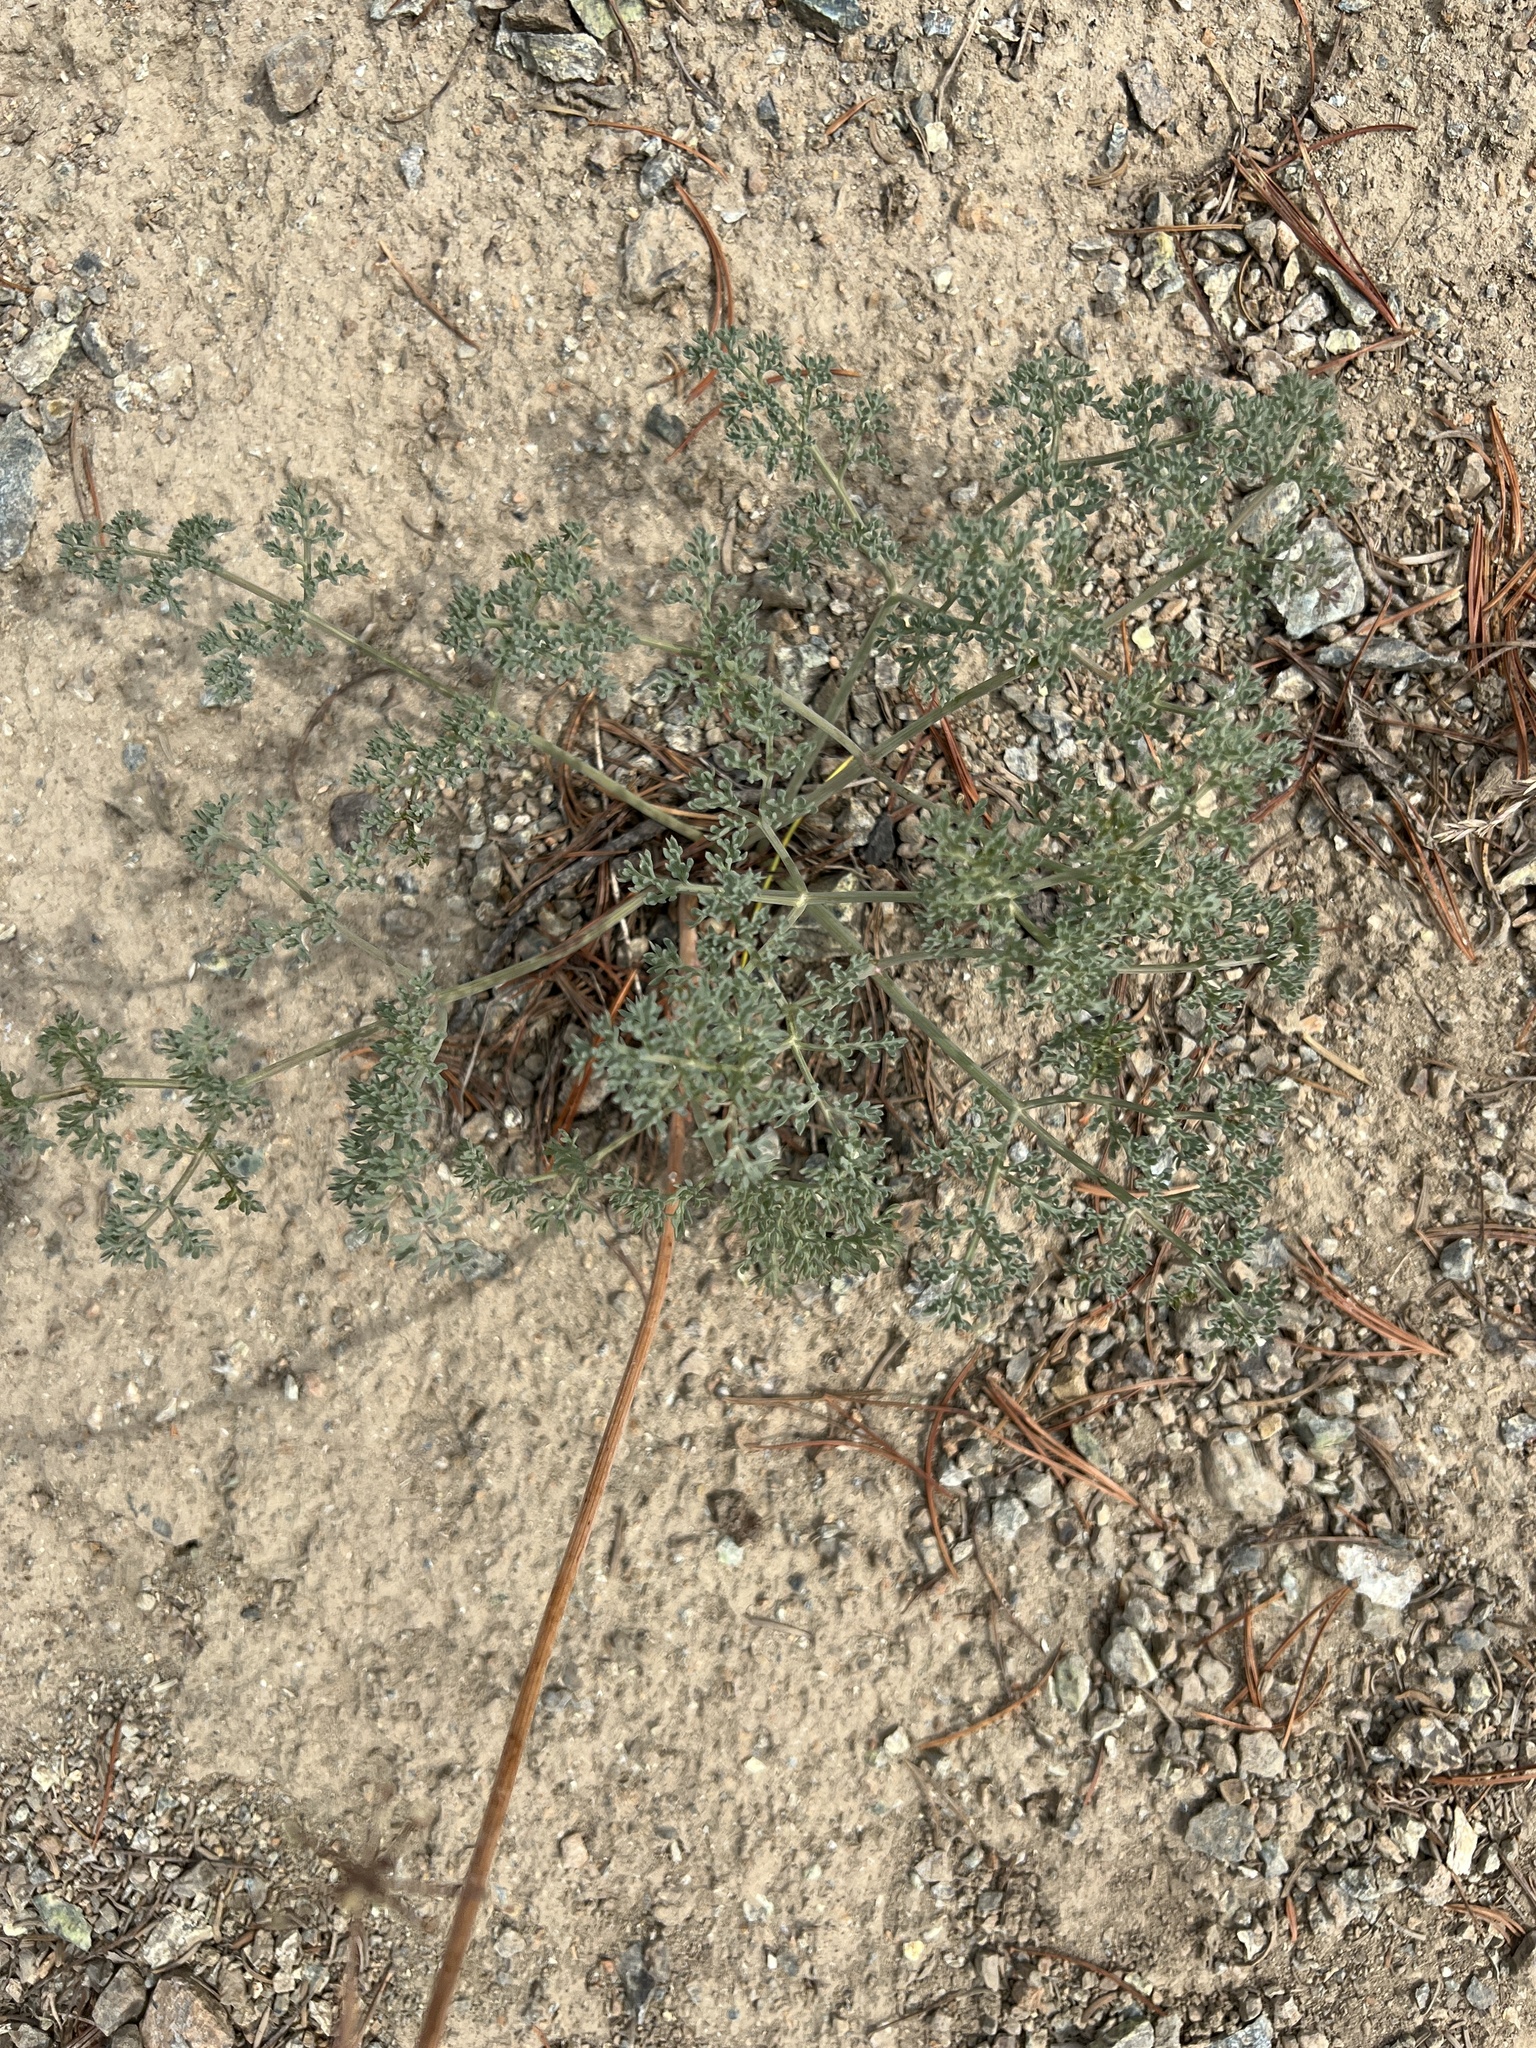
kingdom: Plantae
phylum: Tracheophyta
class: Magnoliopsida
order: Apiales
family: Apiaceae
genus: Lomatium
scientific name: Lomatium cuspidatum
